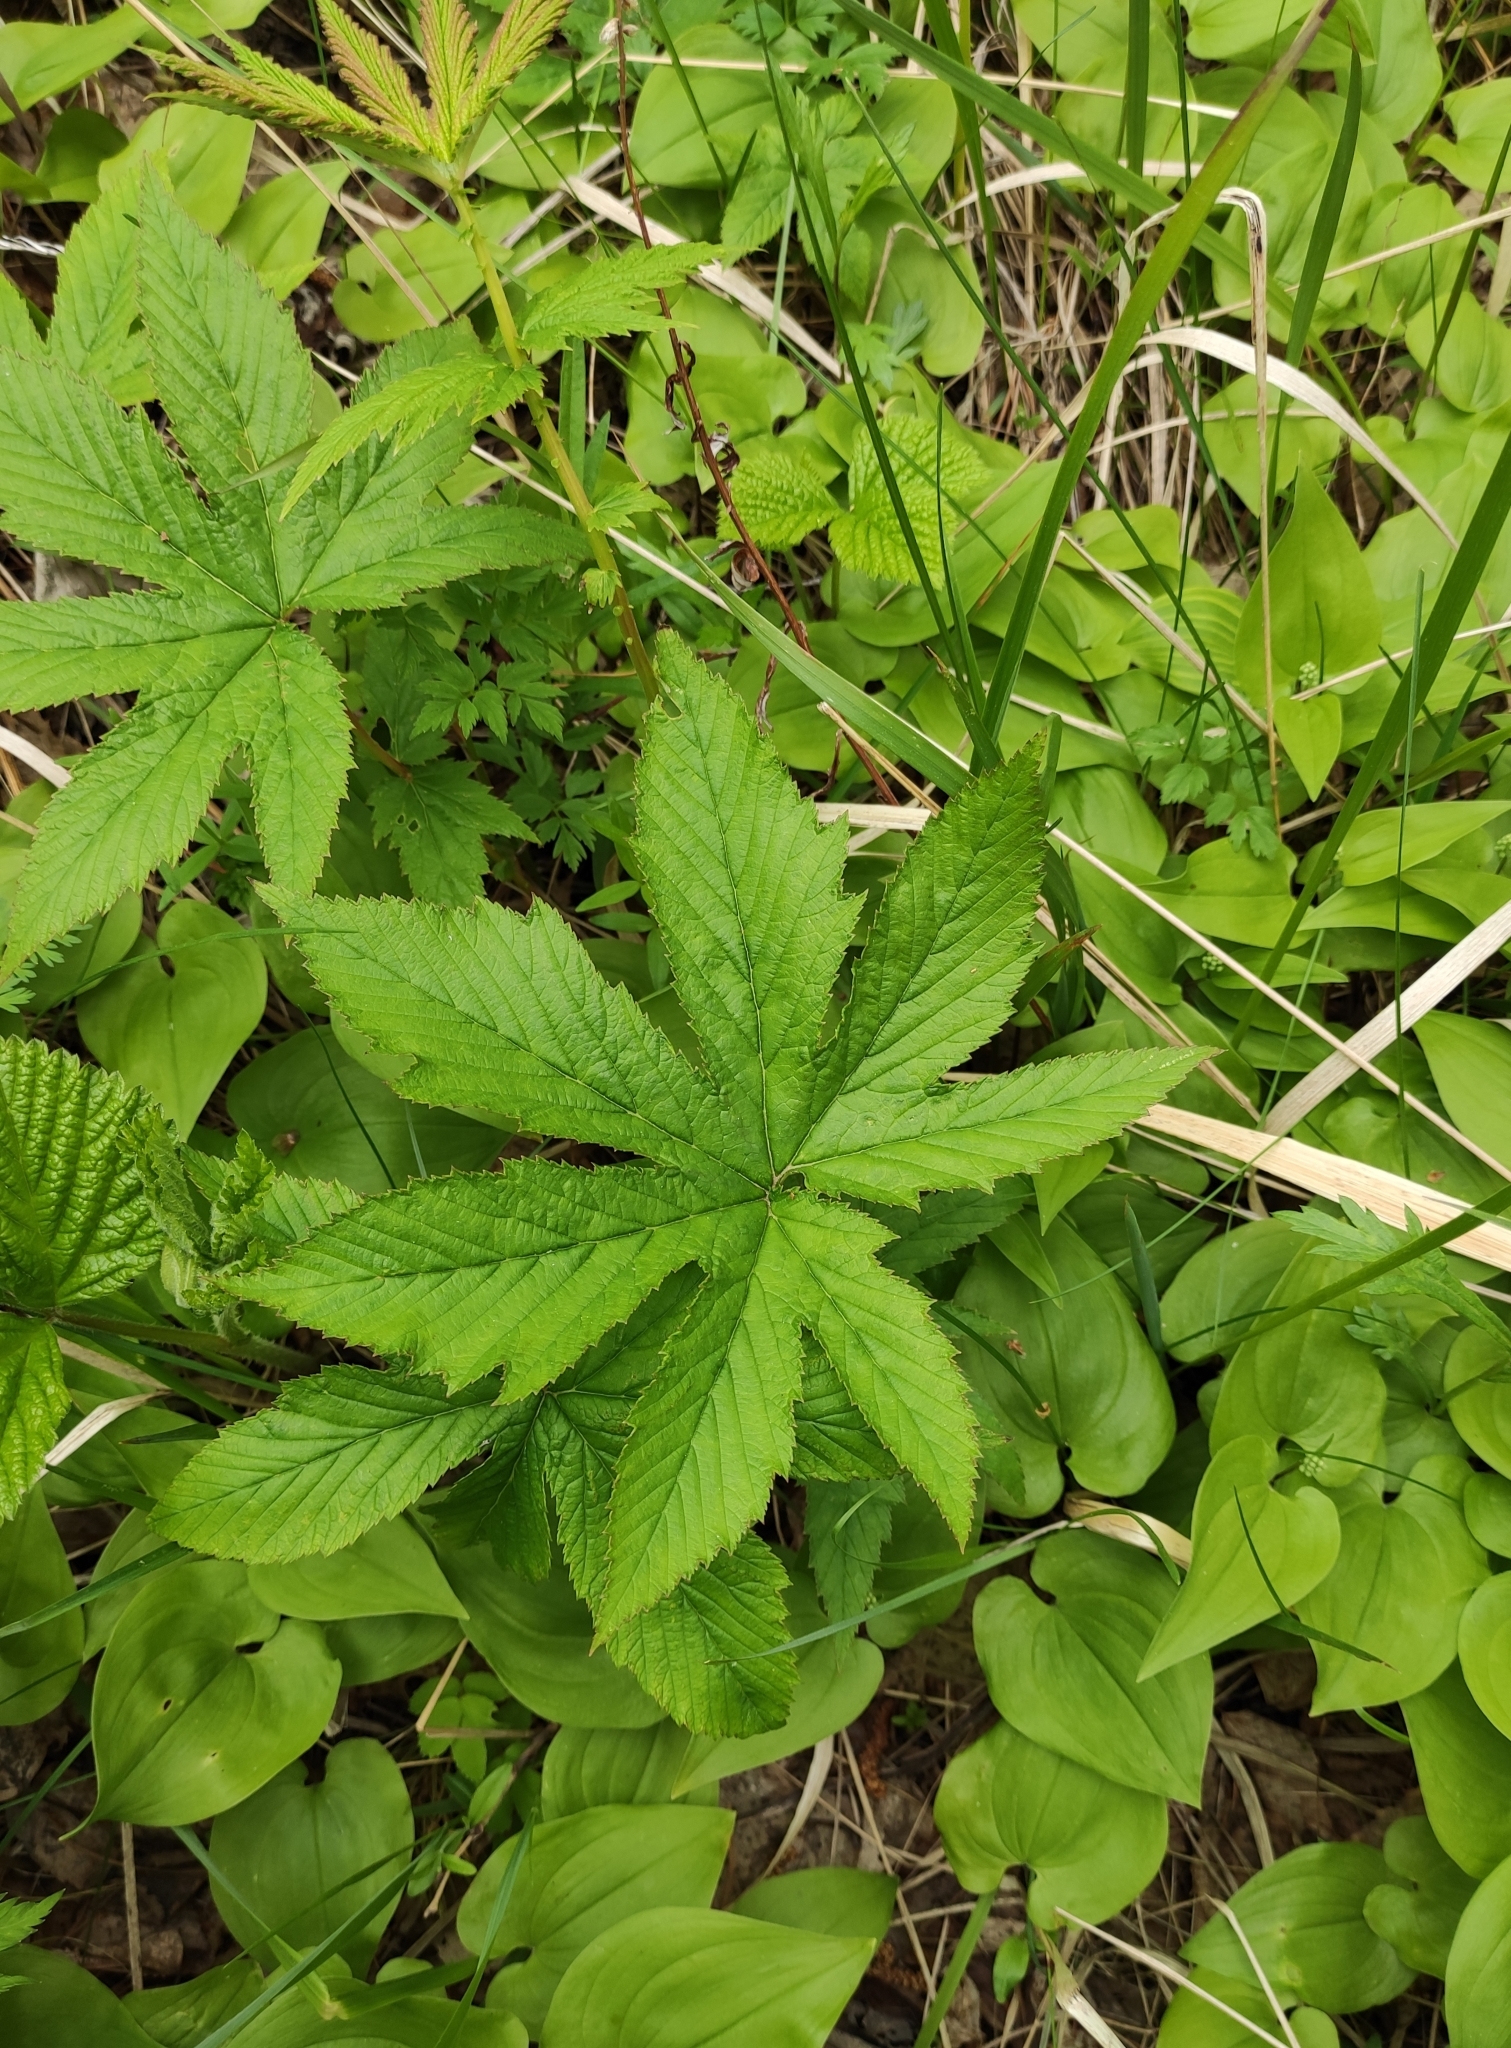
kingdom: Plantae
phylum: Tracheophyta
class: Magnoliopsida
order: Rosales
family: Rosaceae
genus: Filipendula
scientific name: Filipendula digitata
